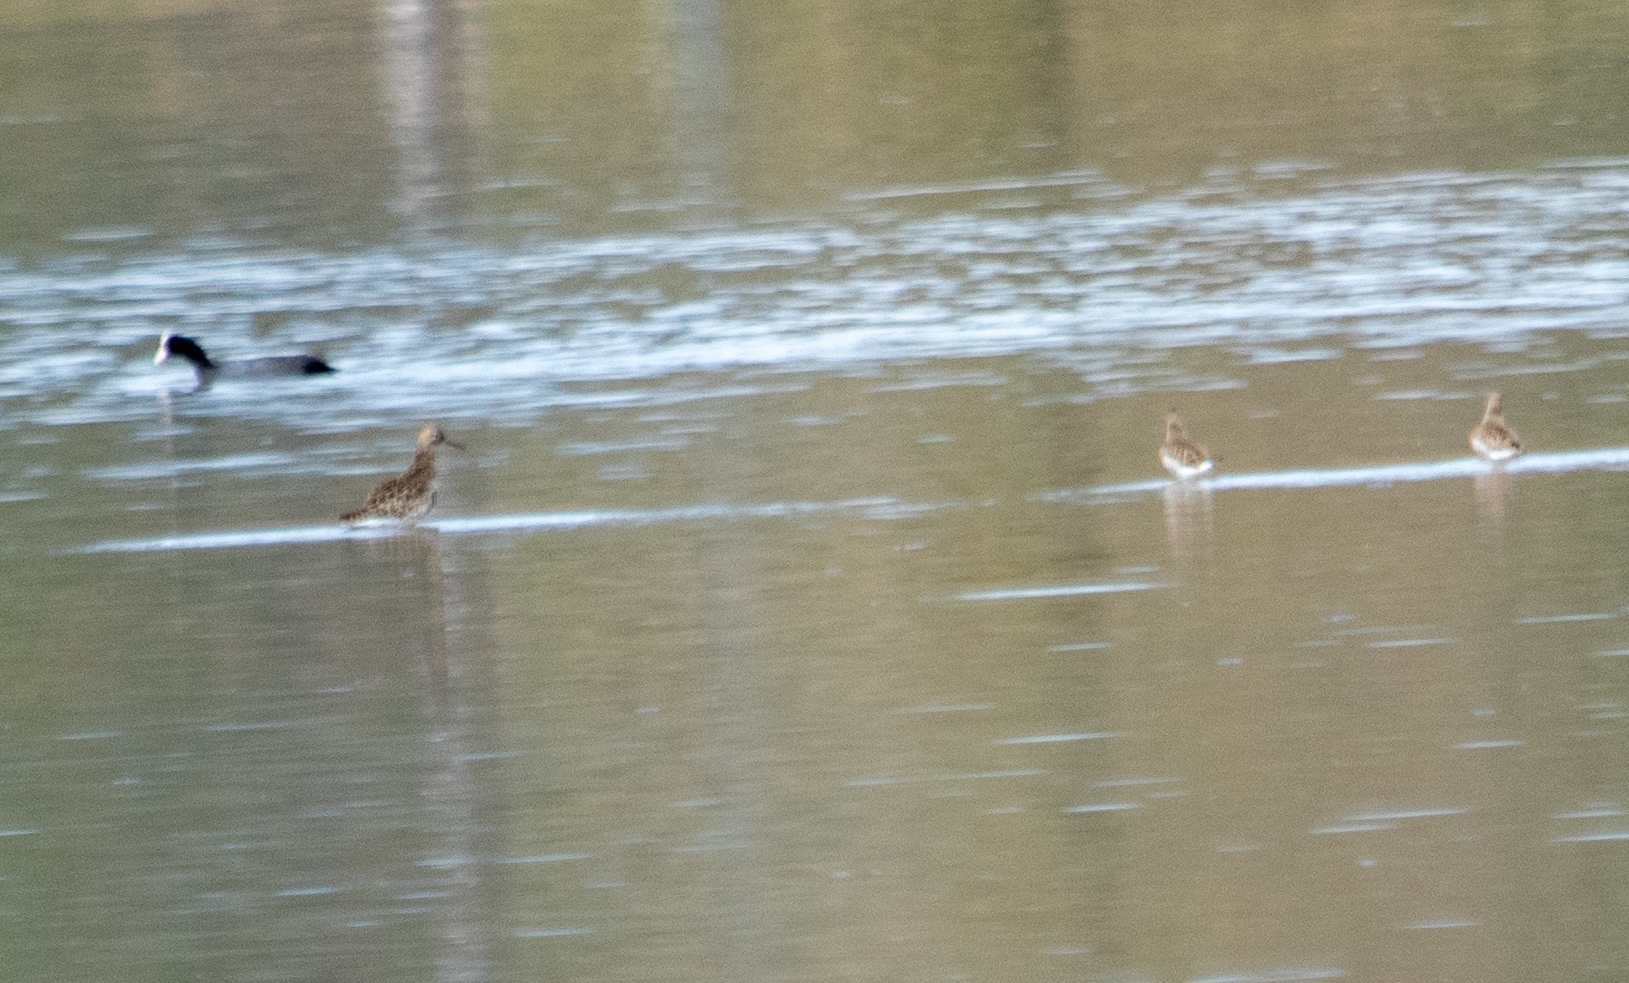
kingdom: Animalia
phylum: Chordata
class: Aves
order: Charadriiformes
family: Scolopacidae
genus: Calidris
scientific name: Calidris pugnax
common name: Ruff
